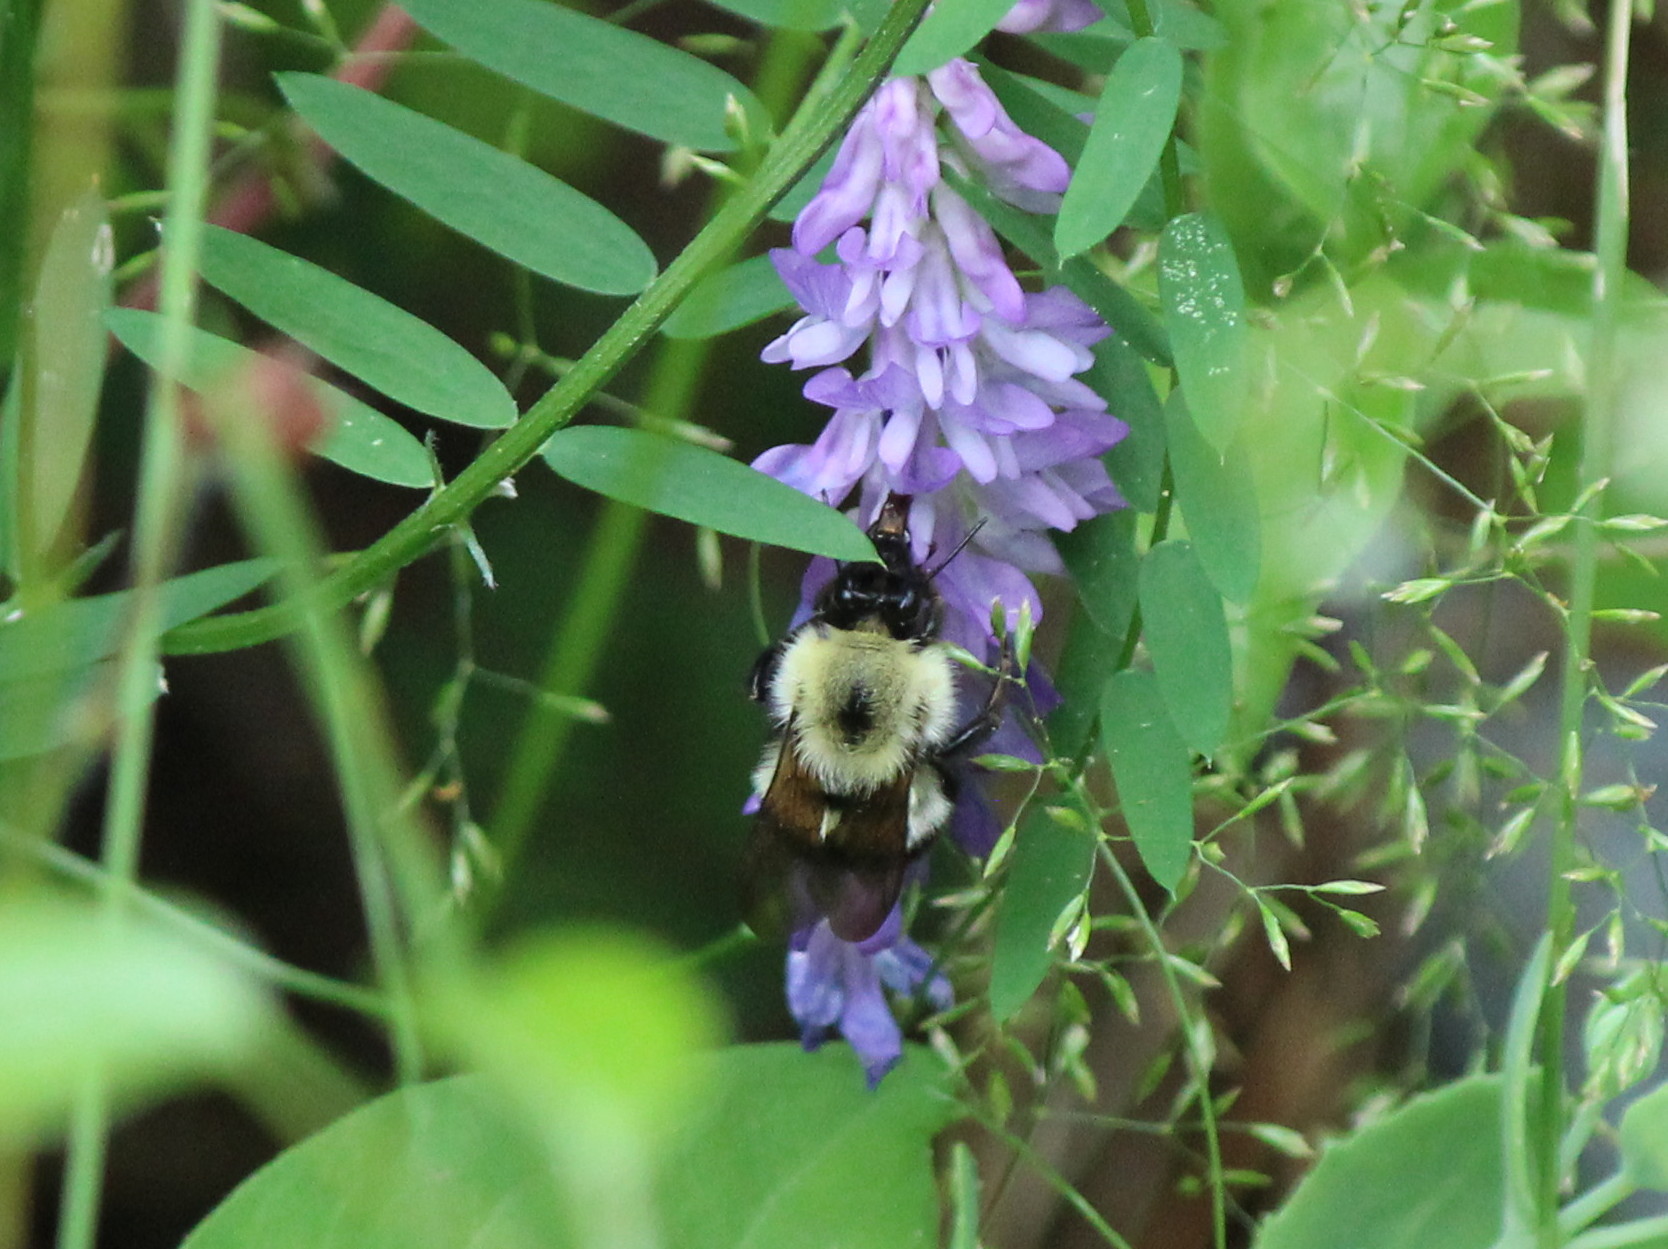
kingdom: Animalia
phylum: Arthropoda
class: Insecta
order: Hymenoptera
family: Apidae
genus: Bombus
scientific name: Bombus vagans
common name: Half-black bumble bee
